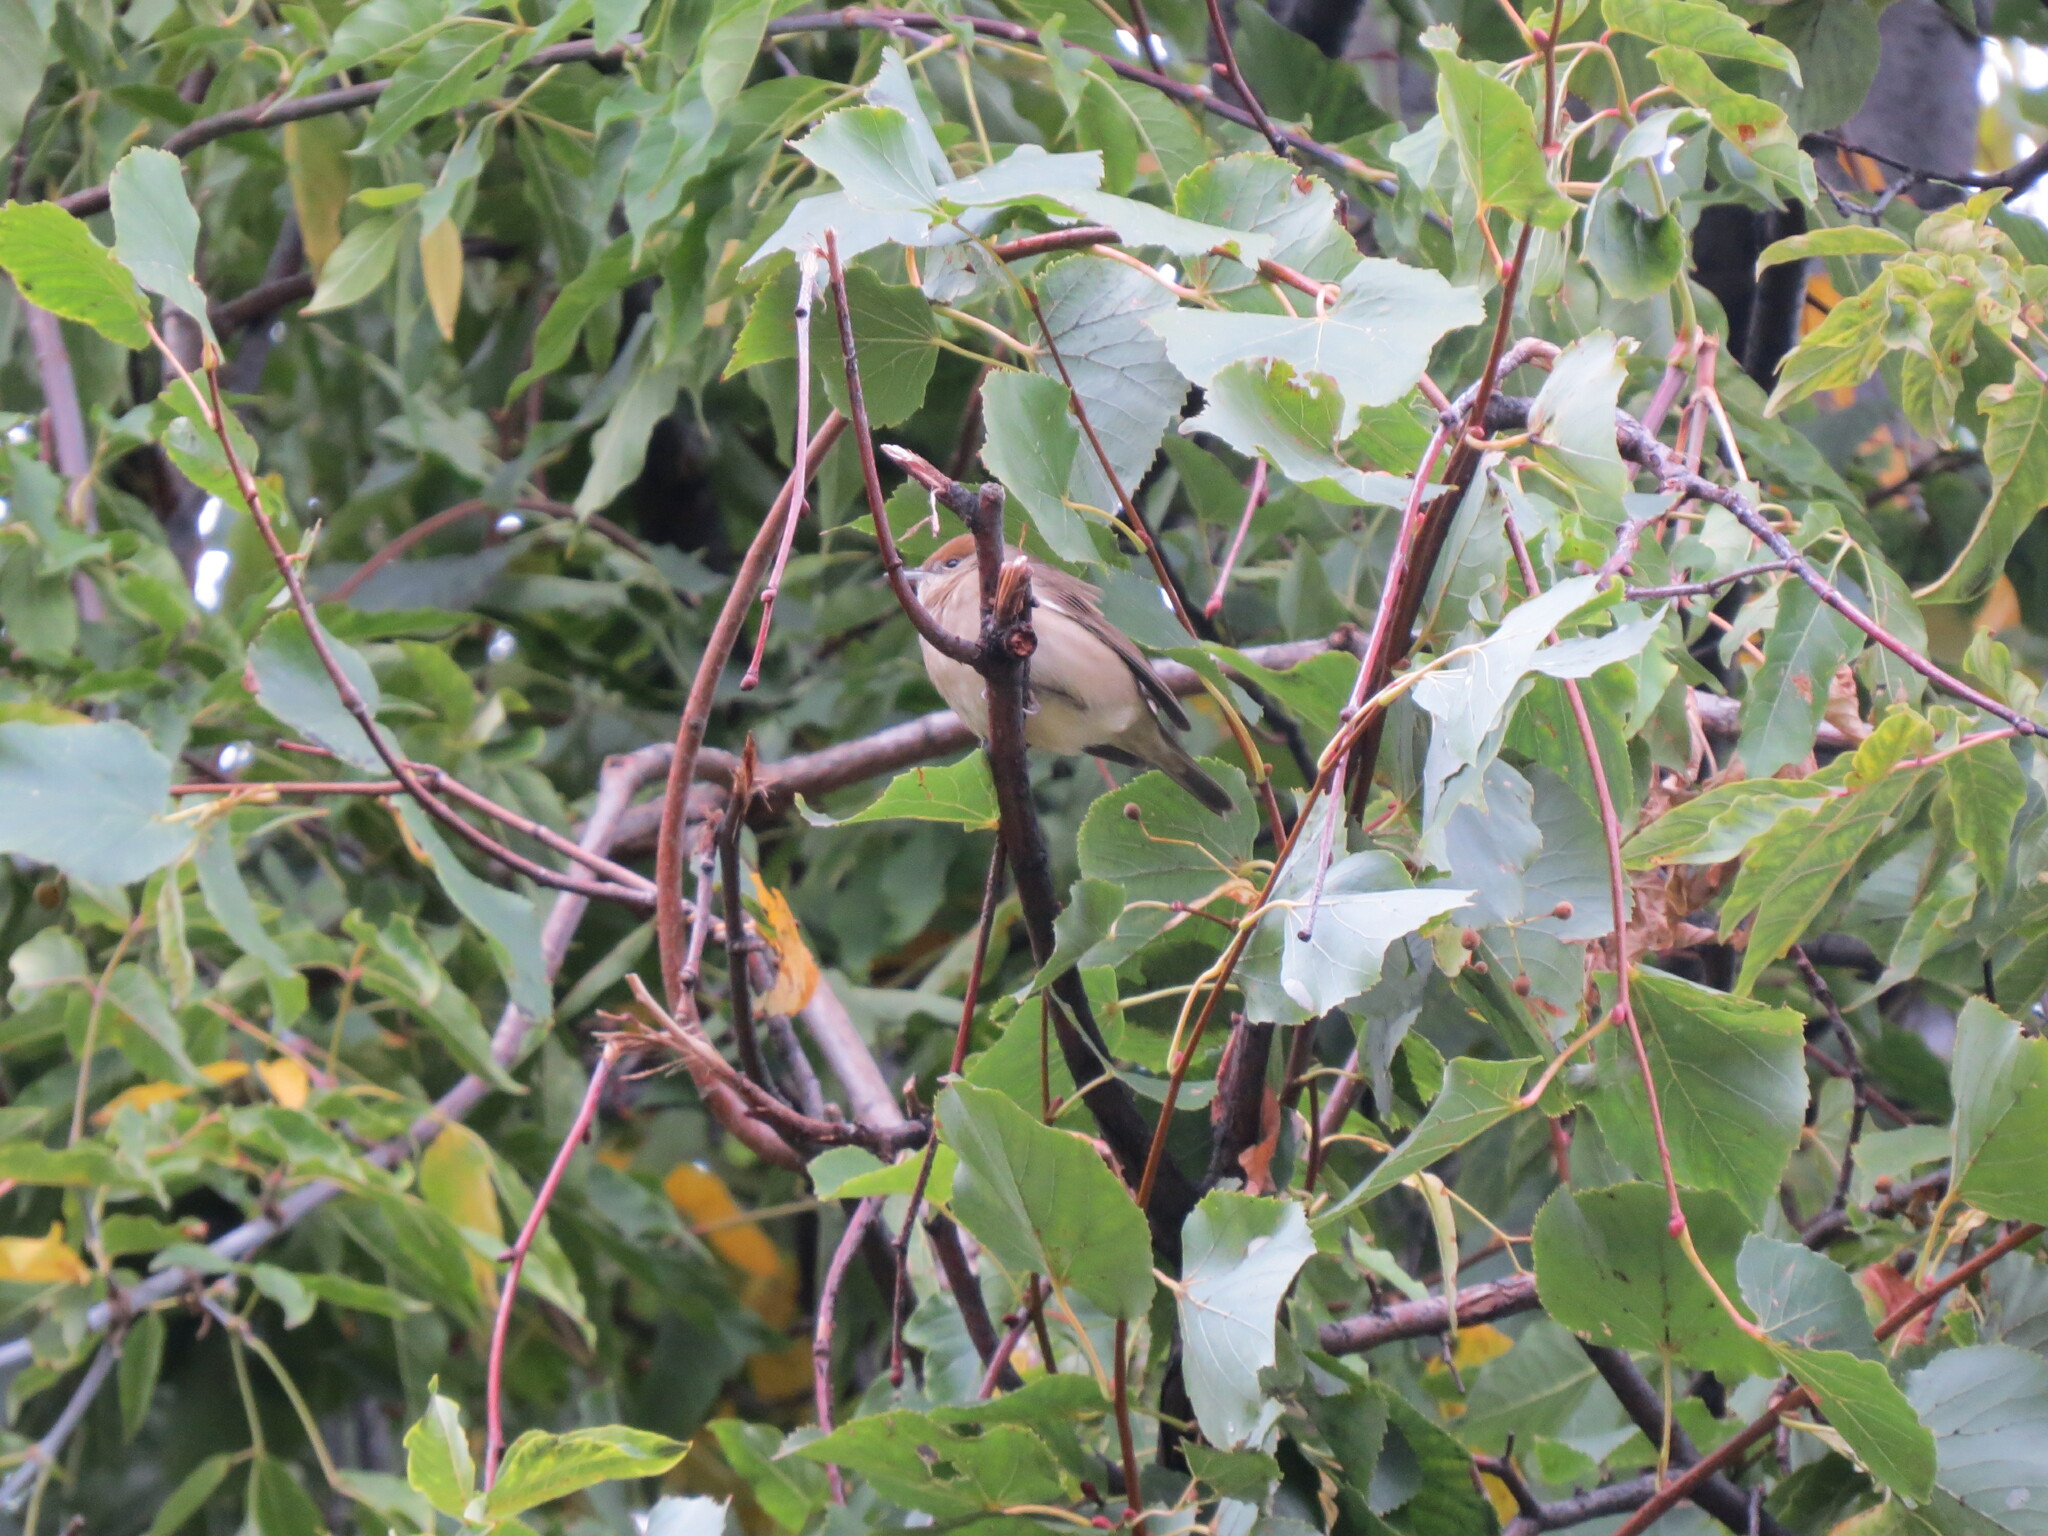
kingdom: Animalia
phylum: Chordata
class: Aves
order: Passeriformes
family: Sylviidae
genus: Sylvia
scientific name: Sylvia atricapilla
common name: Eurasian blackcap
